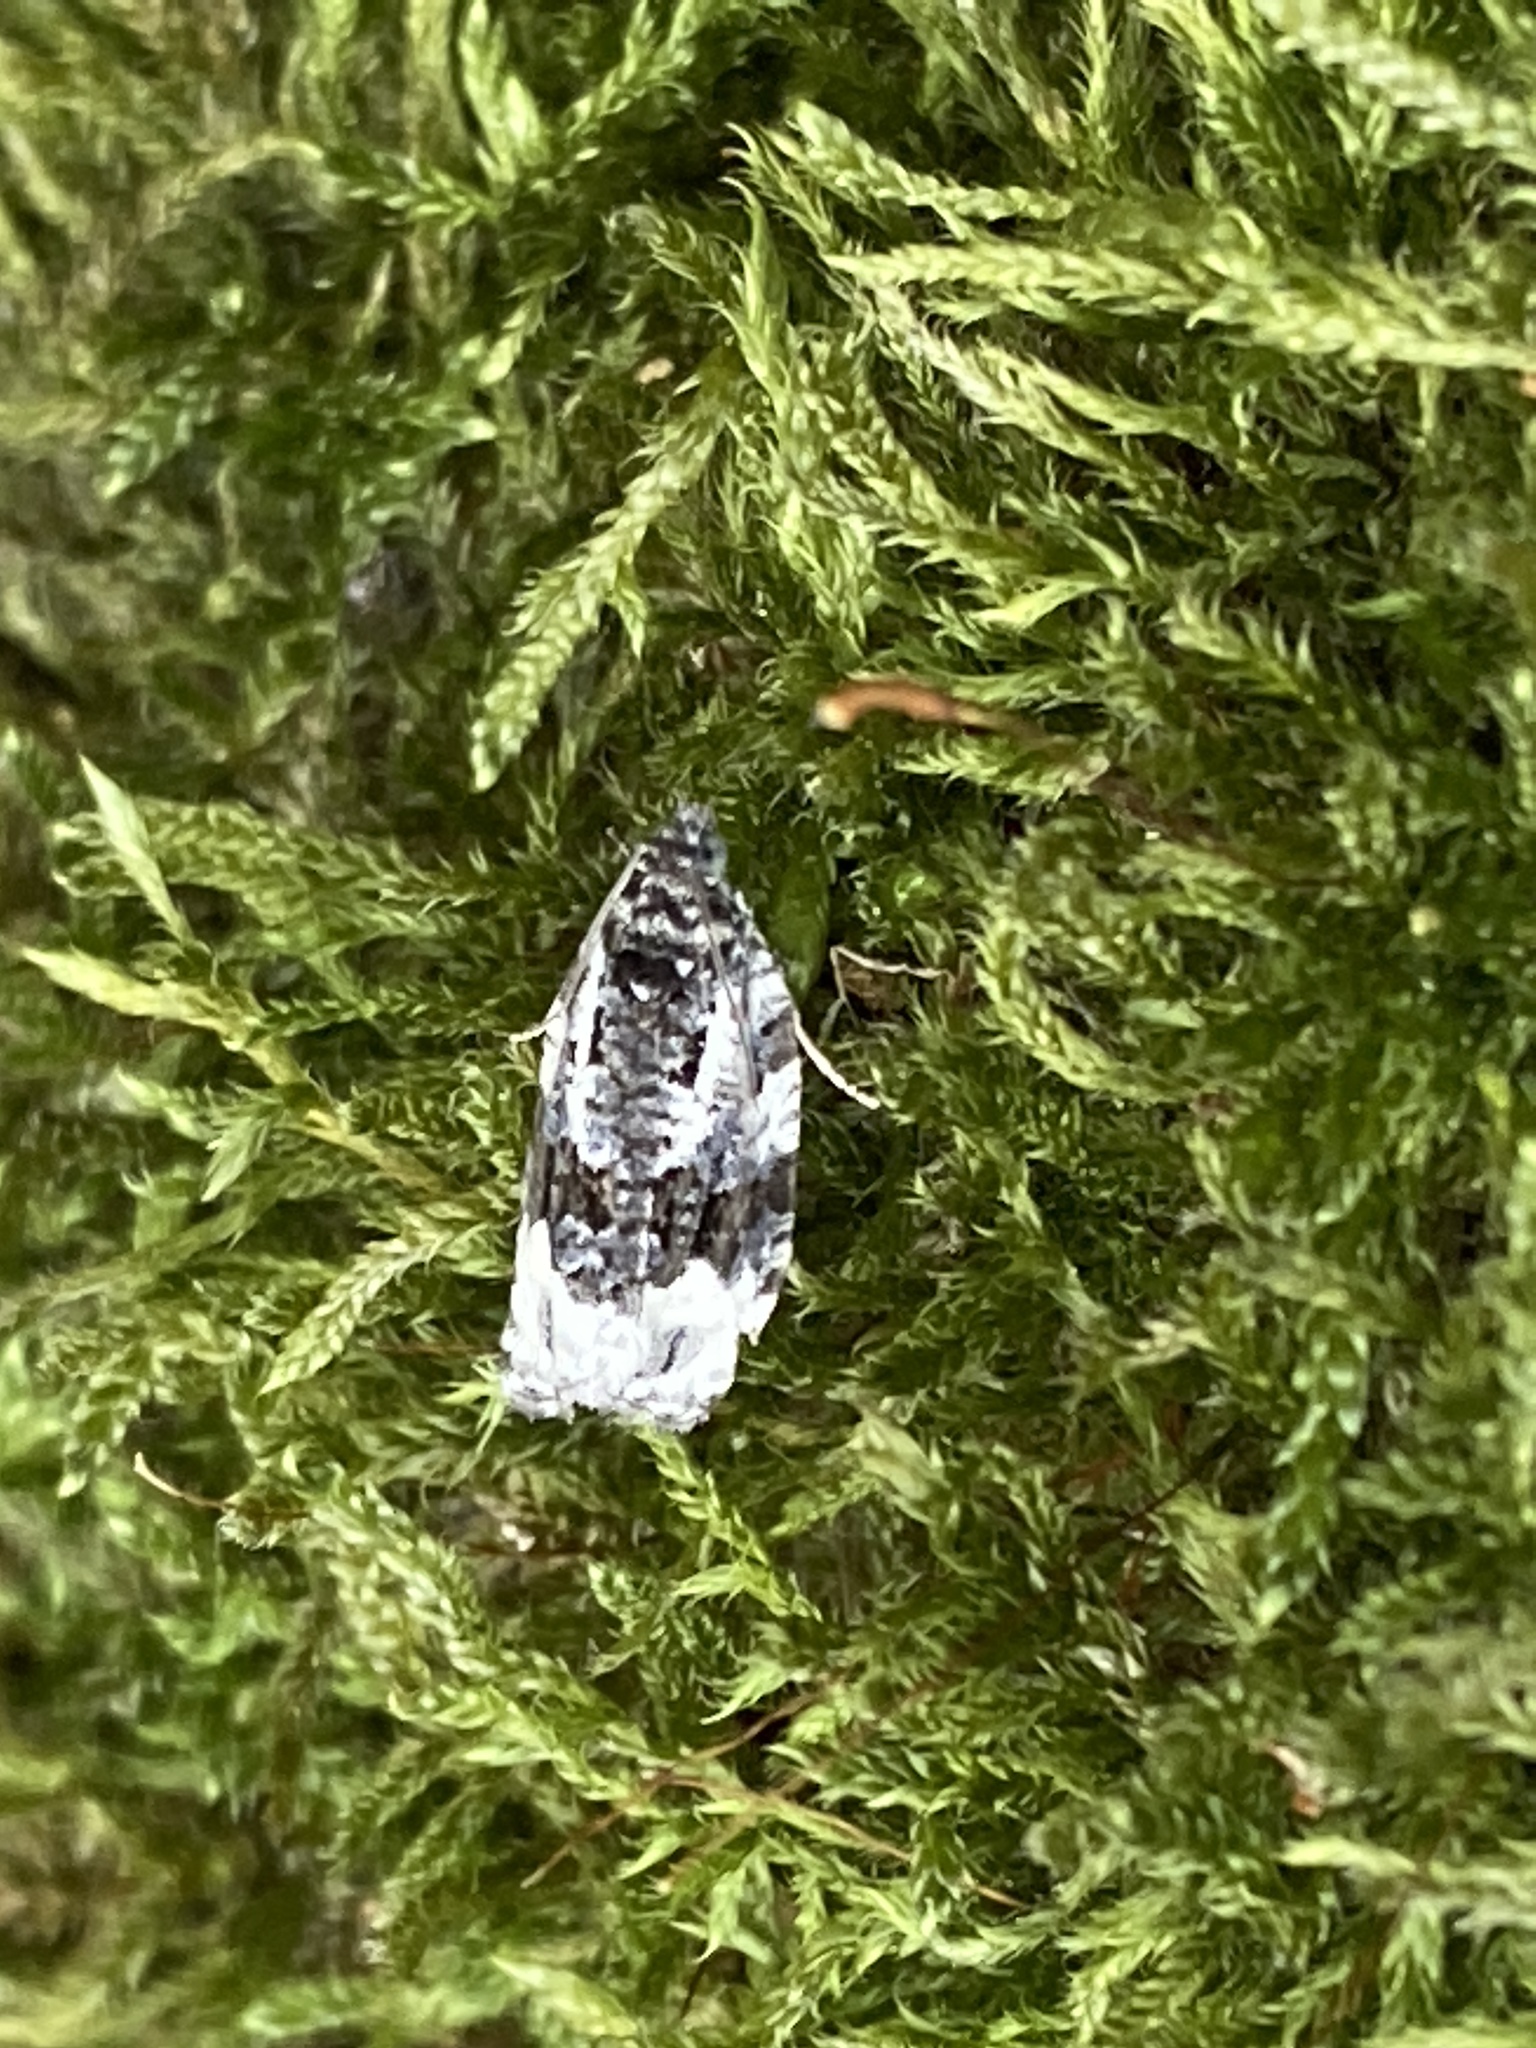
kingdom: Animalia
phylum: Arthropoda
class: Insecta
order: Lepidoptera
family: Tortricidae
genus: Apotomis
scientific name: Apotomis turbidana
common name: White-shouldered marble
